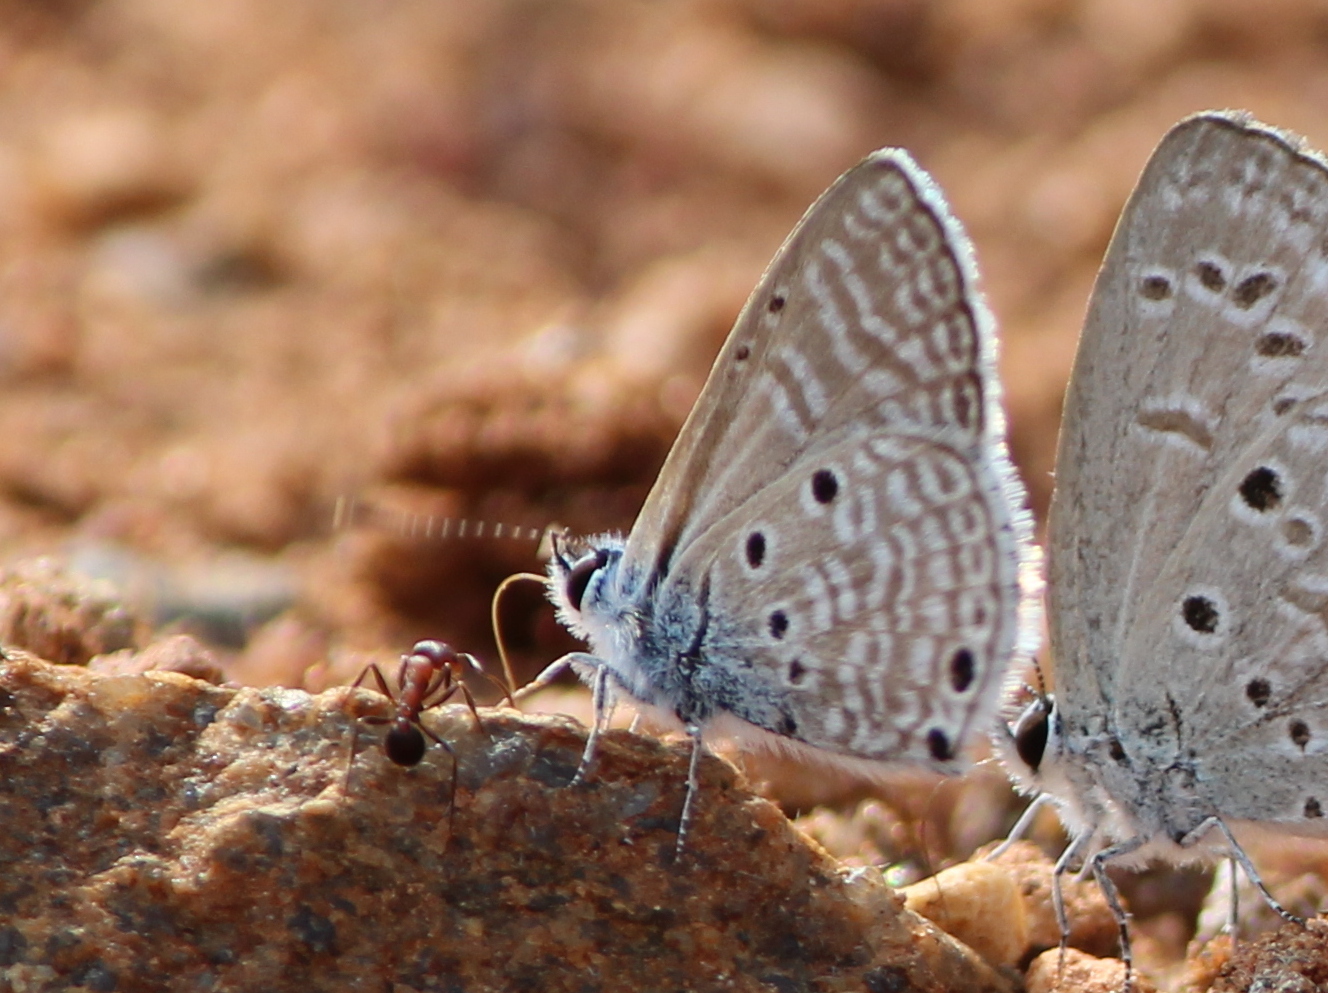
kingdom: Animalia
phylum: Arthropoda
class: Insecta
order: Lepidoptera
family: Lycaenidae
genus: Azanus
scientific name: Azanus ubaldus
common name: Desert babul blue
